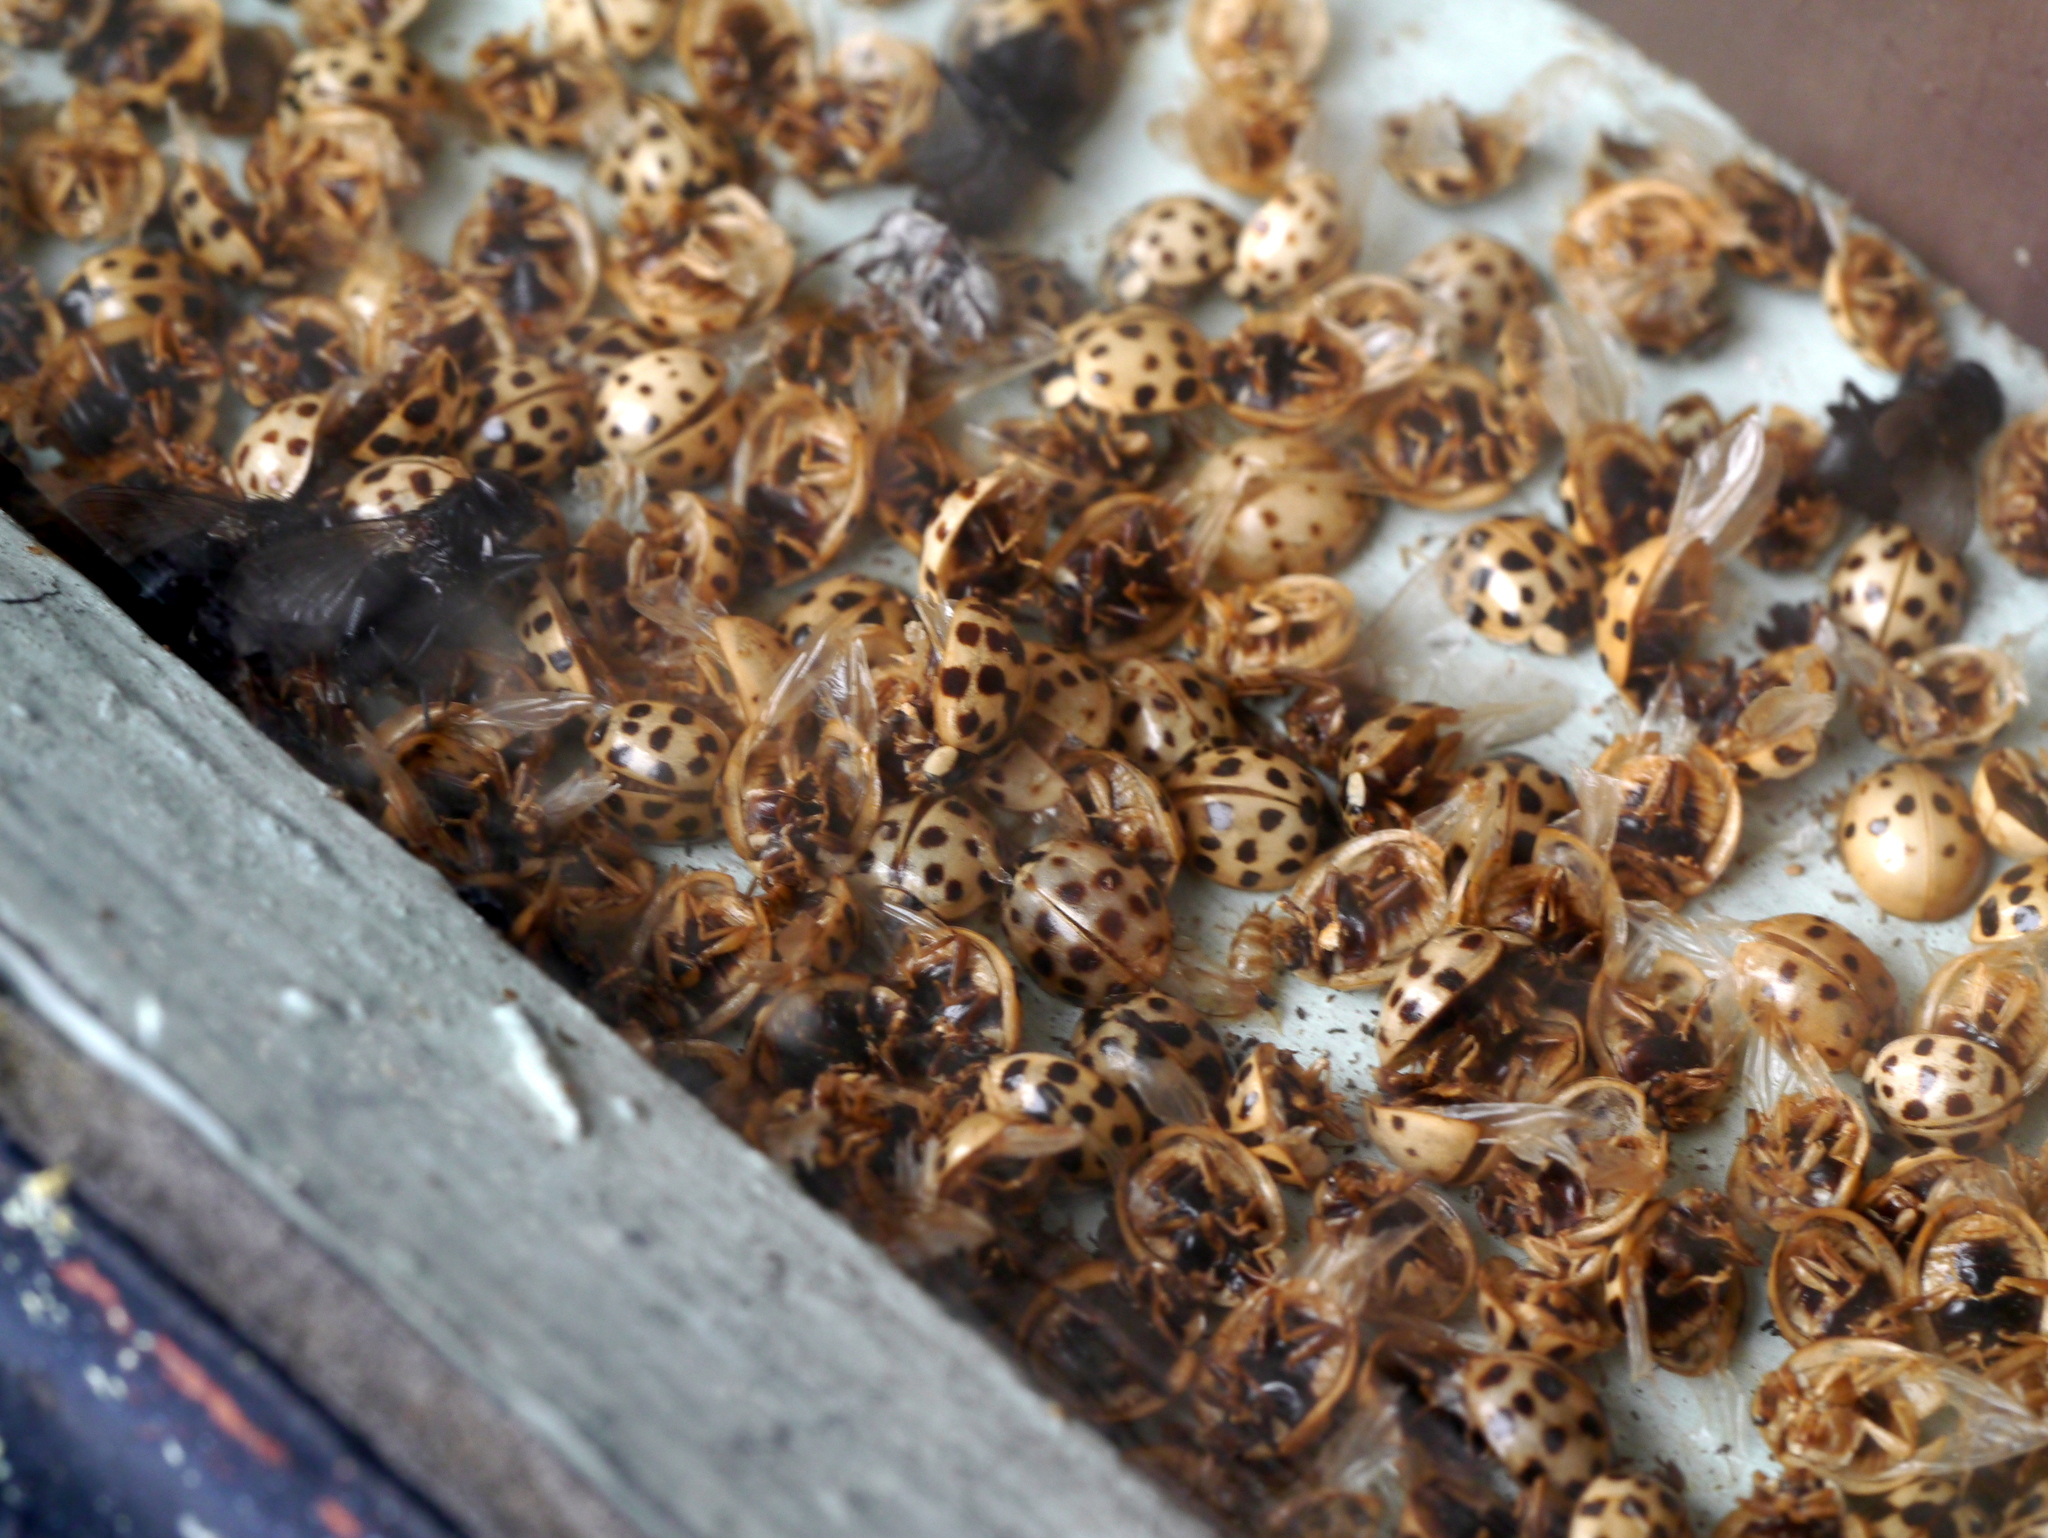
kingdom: Animalia
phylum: Arthropoda
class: Insecta
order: Coleoptera
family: Coccinellidae
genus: Harmonia
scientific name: Harmonia axyridis
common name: Harlequin ladybird
